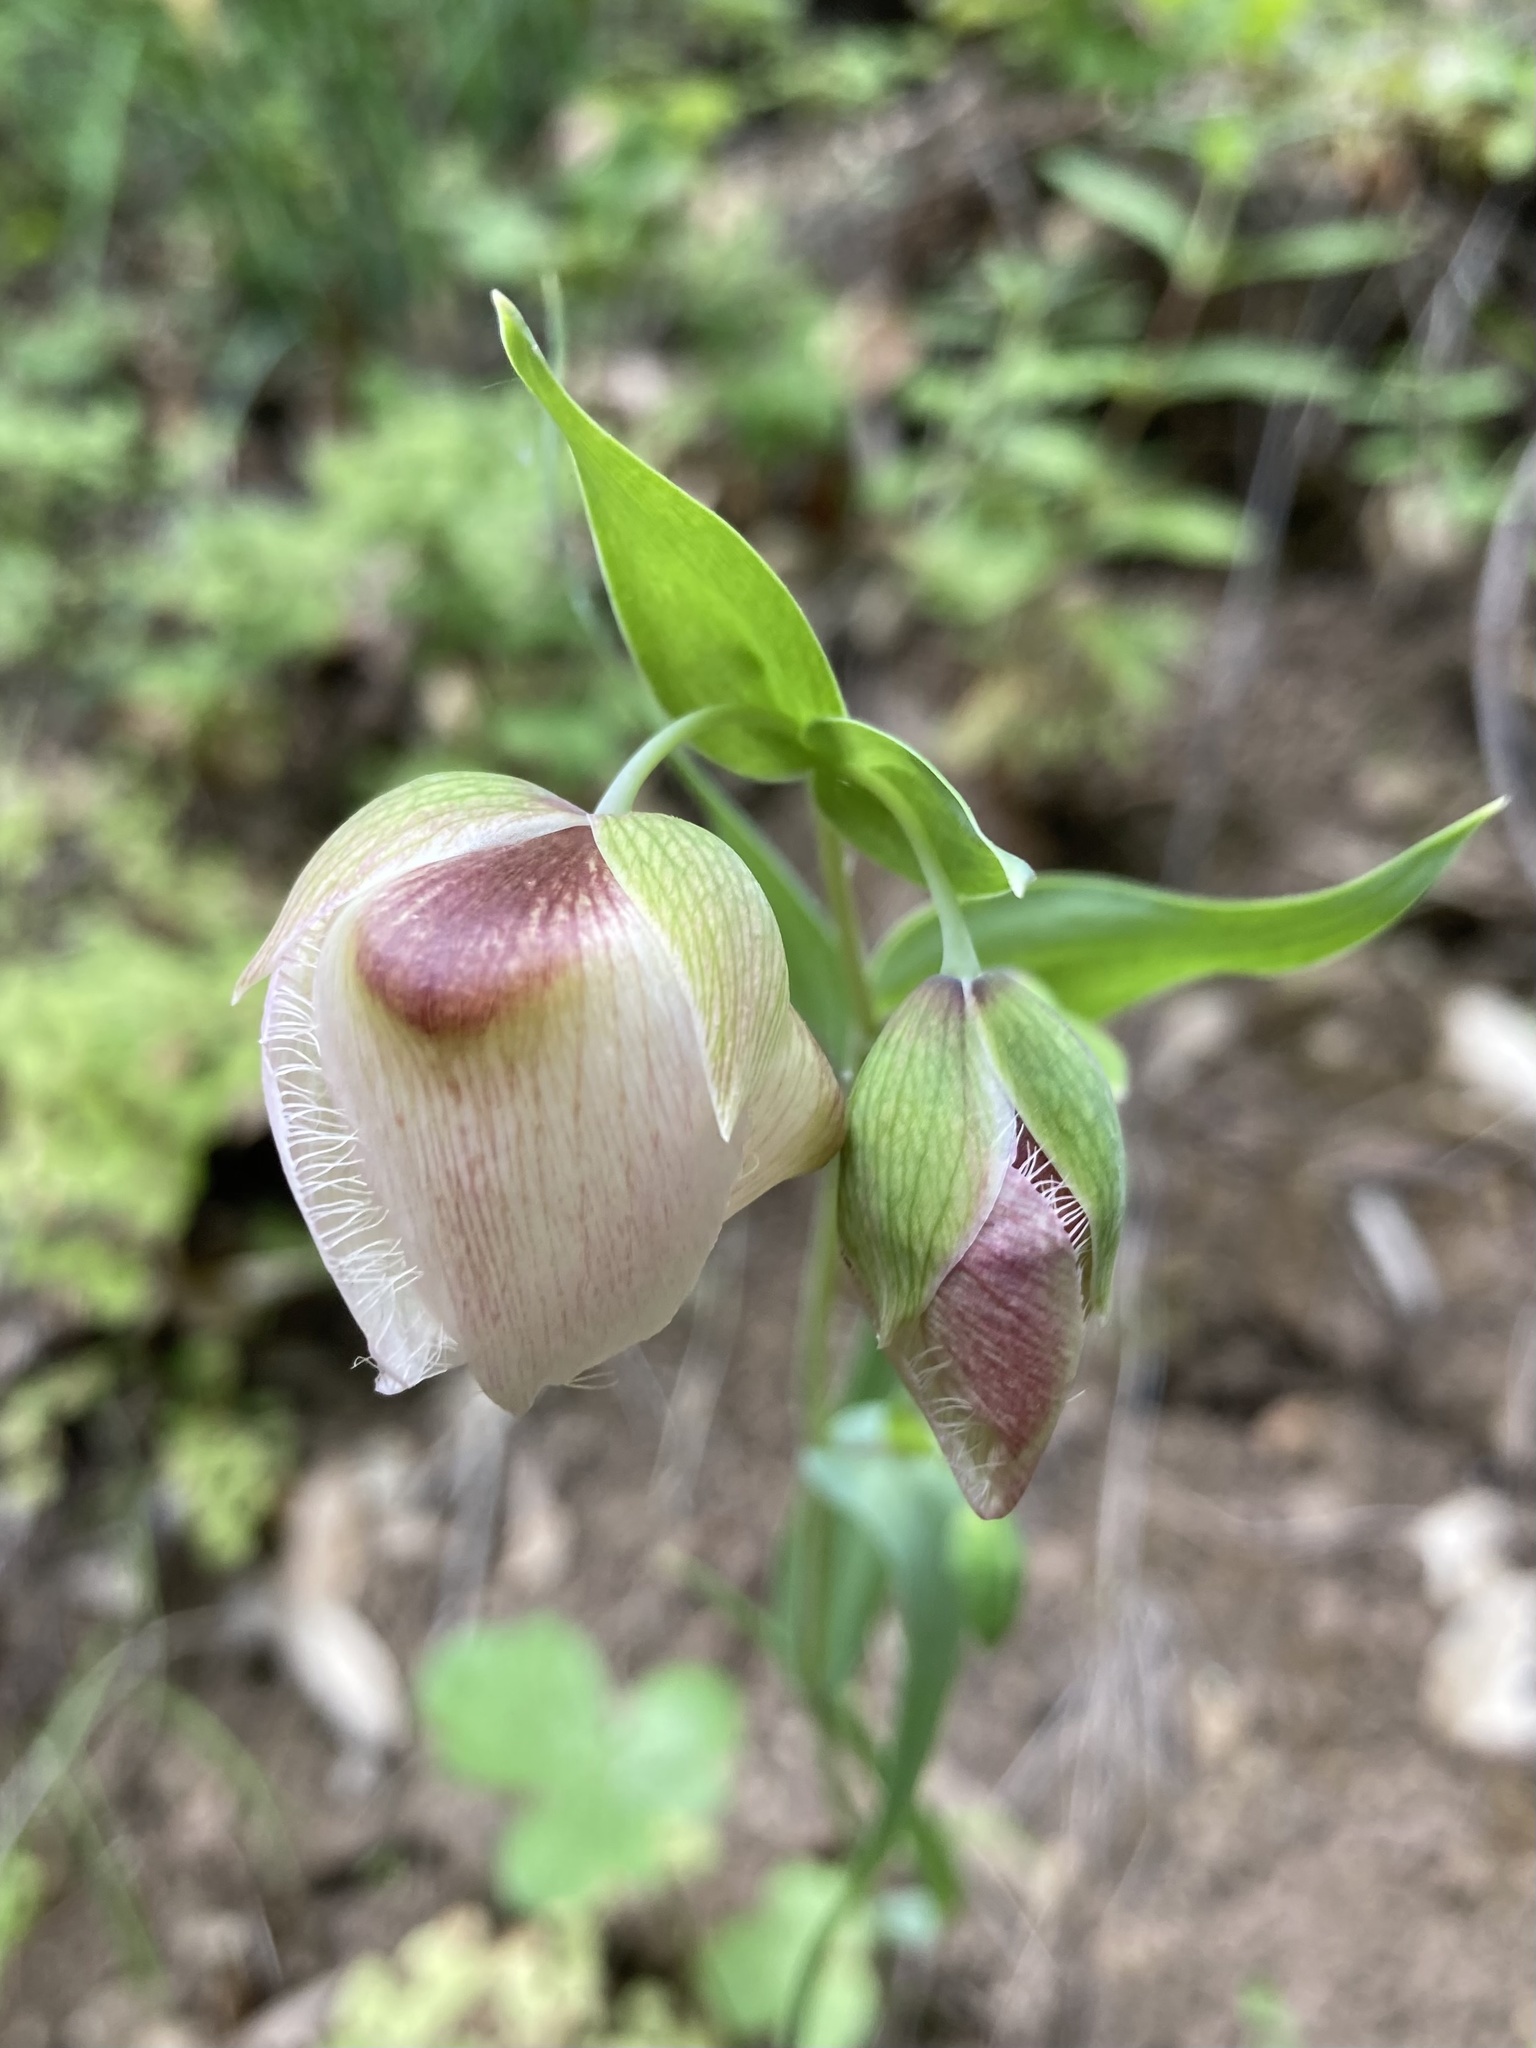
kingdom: Plantae
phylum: Tracheophyta
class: Liliopsida
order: Liliales
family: Liliaceae
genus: Calochortus
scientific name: Calochortus albus
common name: Fairy-lantern
